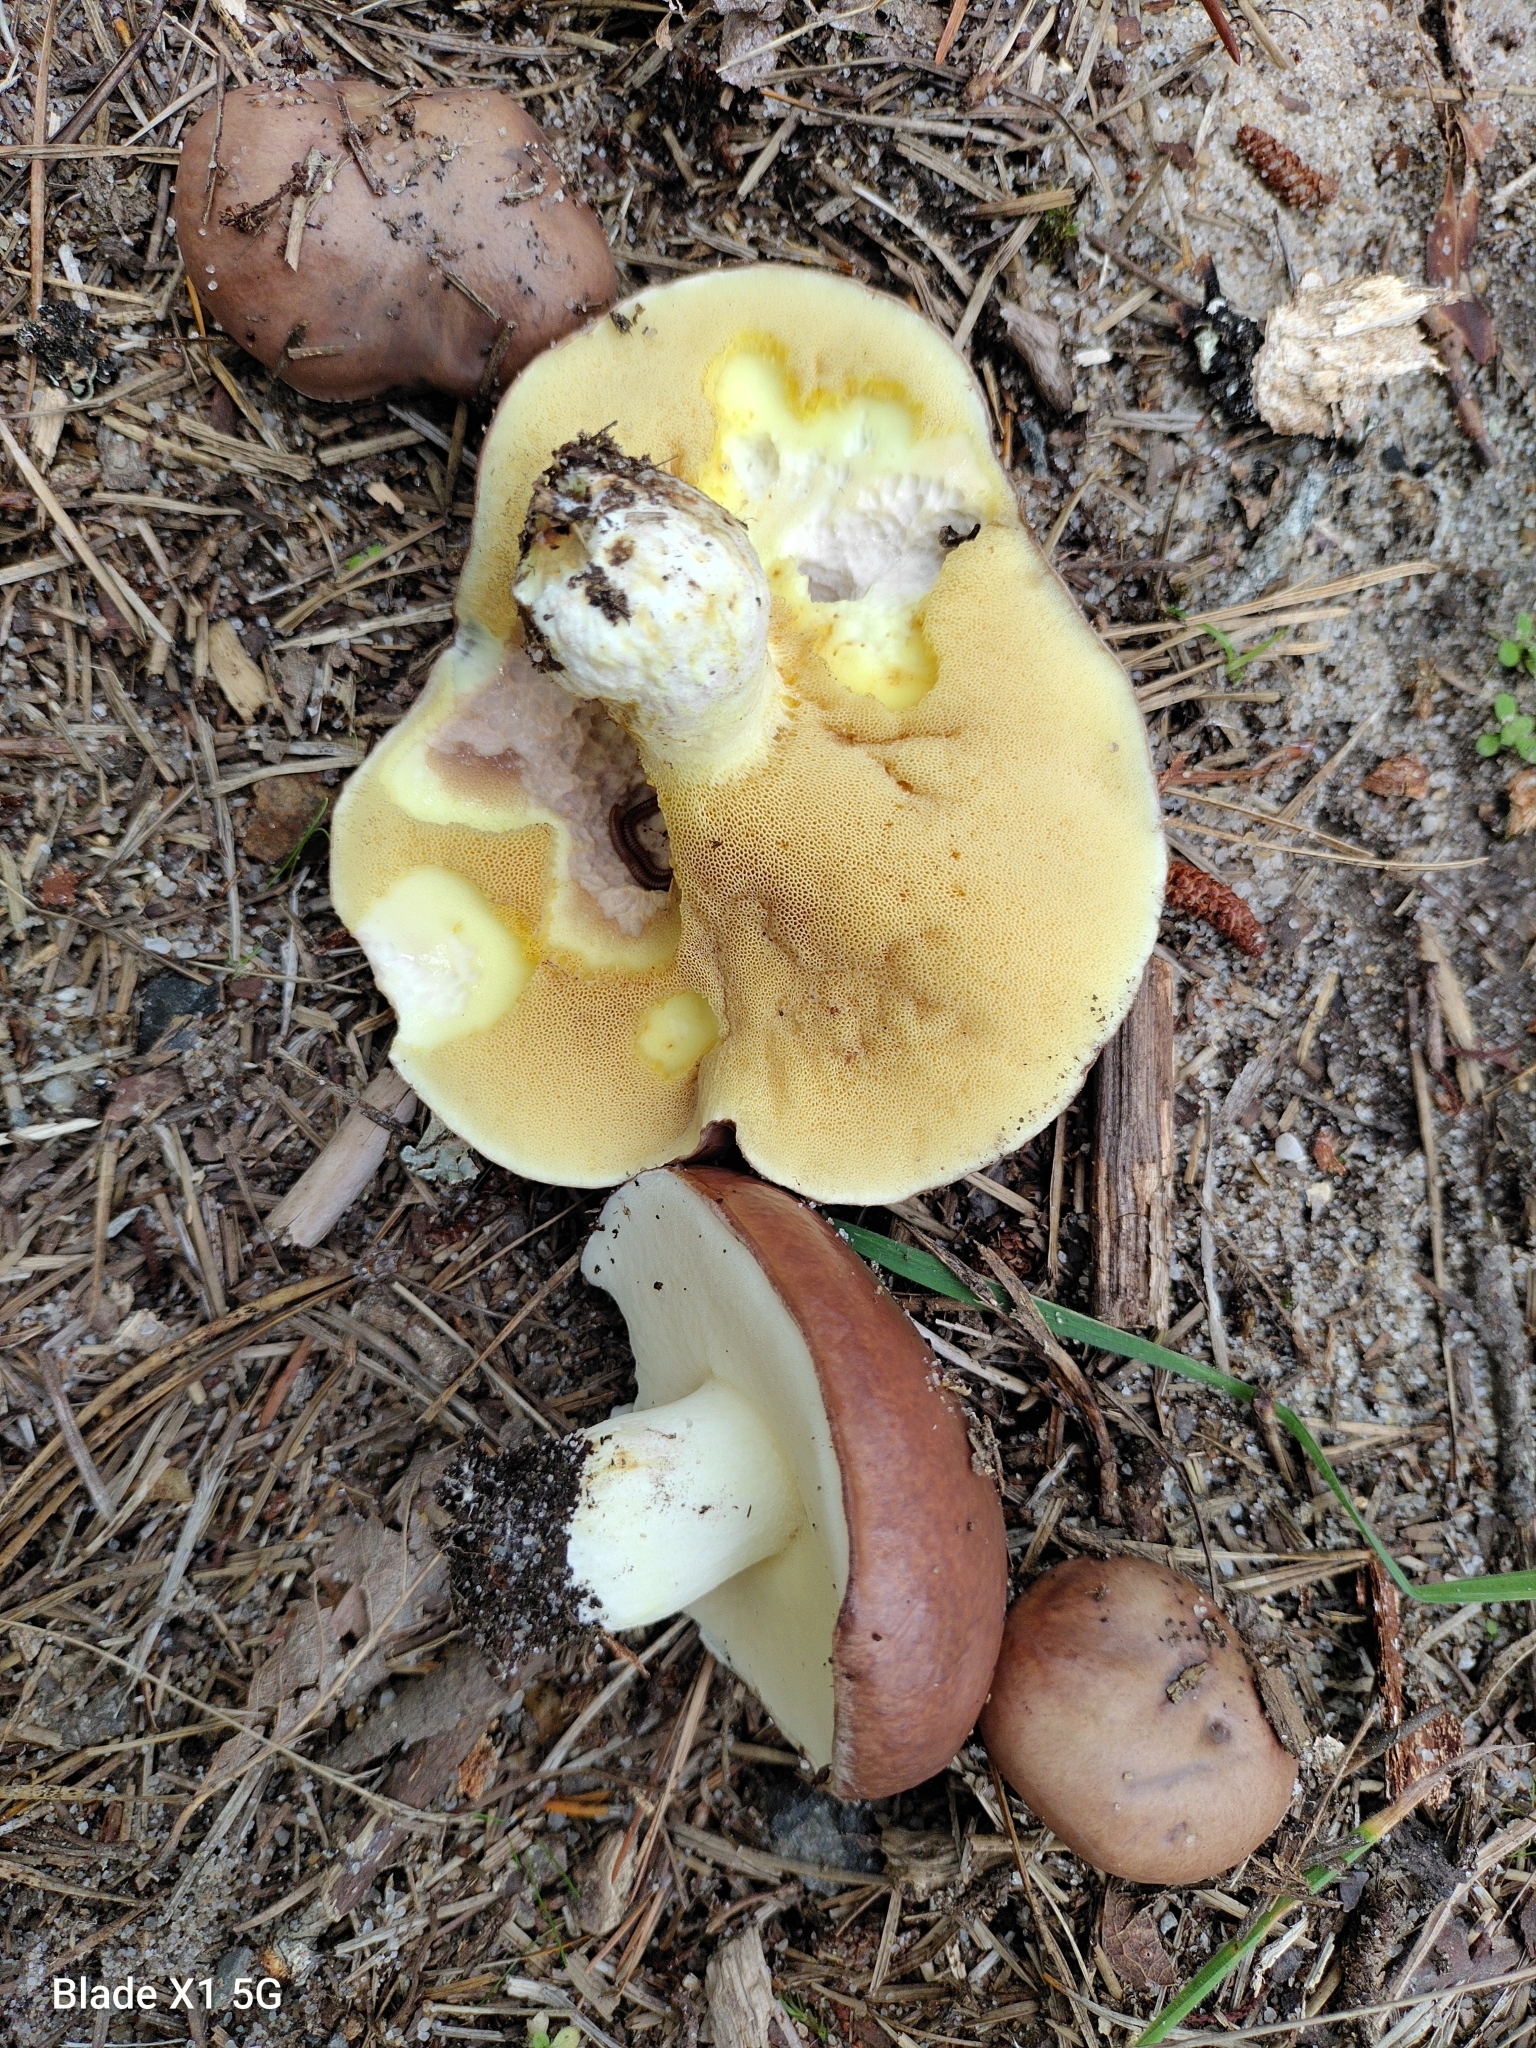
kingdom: Fungi
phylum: Basidiomycota
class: Agaricomycetes
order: Boletales
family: Suillaceae
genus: Suillus
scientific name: Suillus brevipes
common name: Short-stalked suillus
